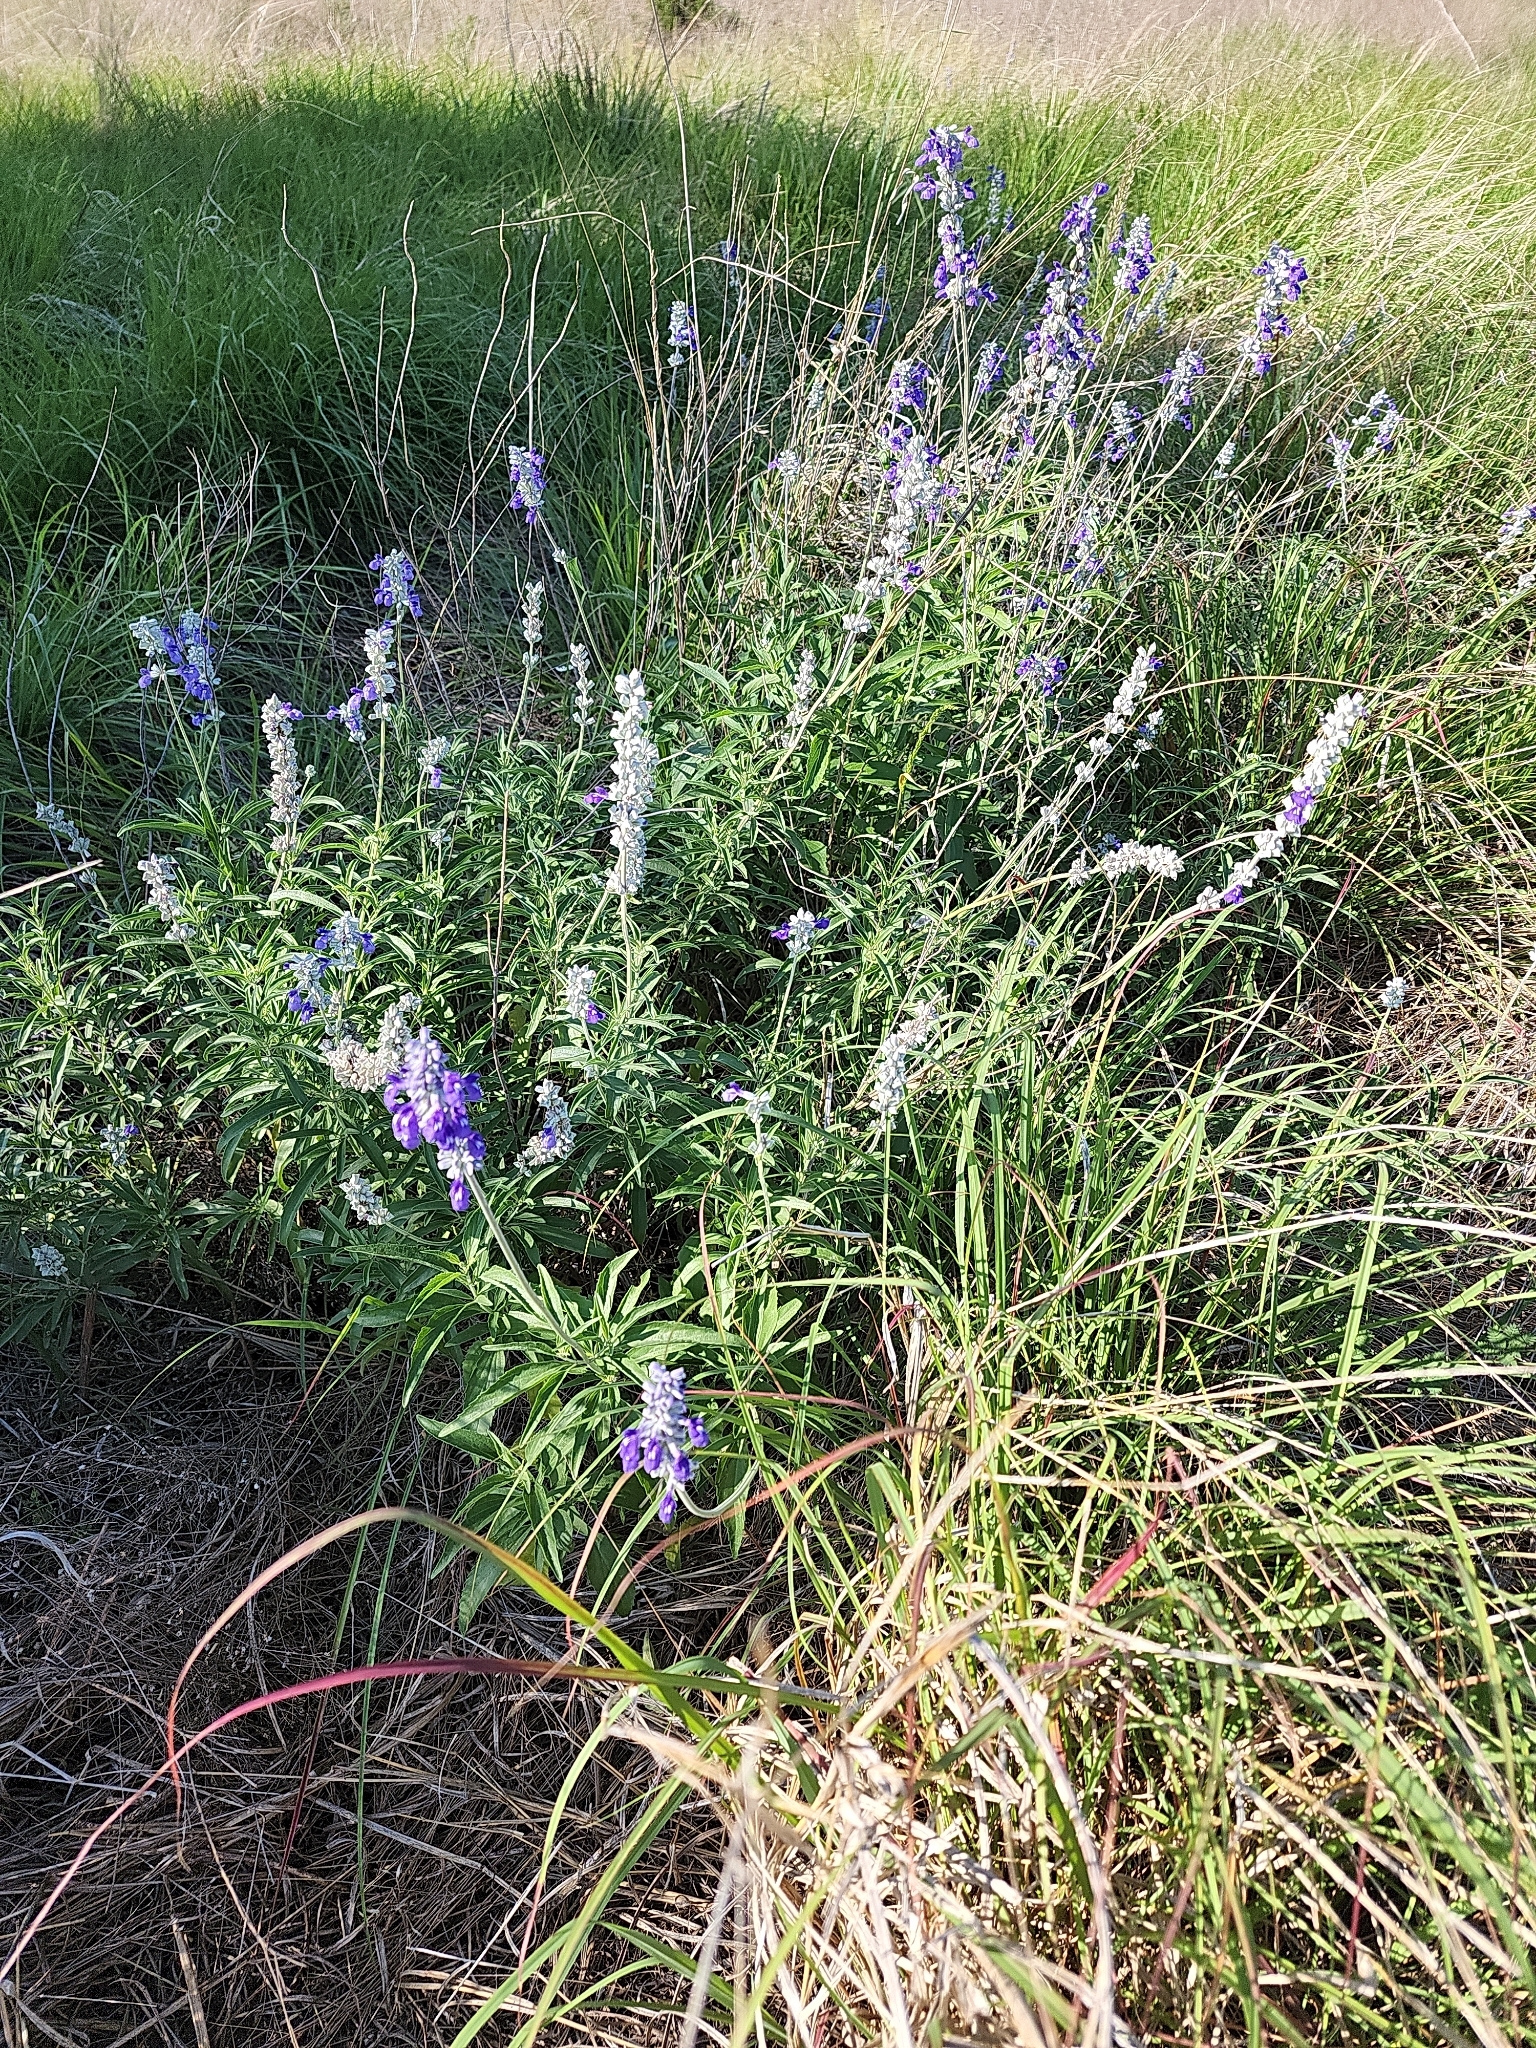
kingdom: Plantae
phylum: Tracheophyta
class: Magnoliopsida
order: Lamiales
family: Lamiaceae
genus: Salvia
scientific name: Salvia farinacea
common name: Mealy sage
